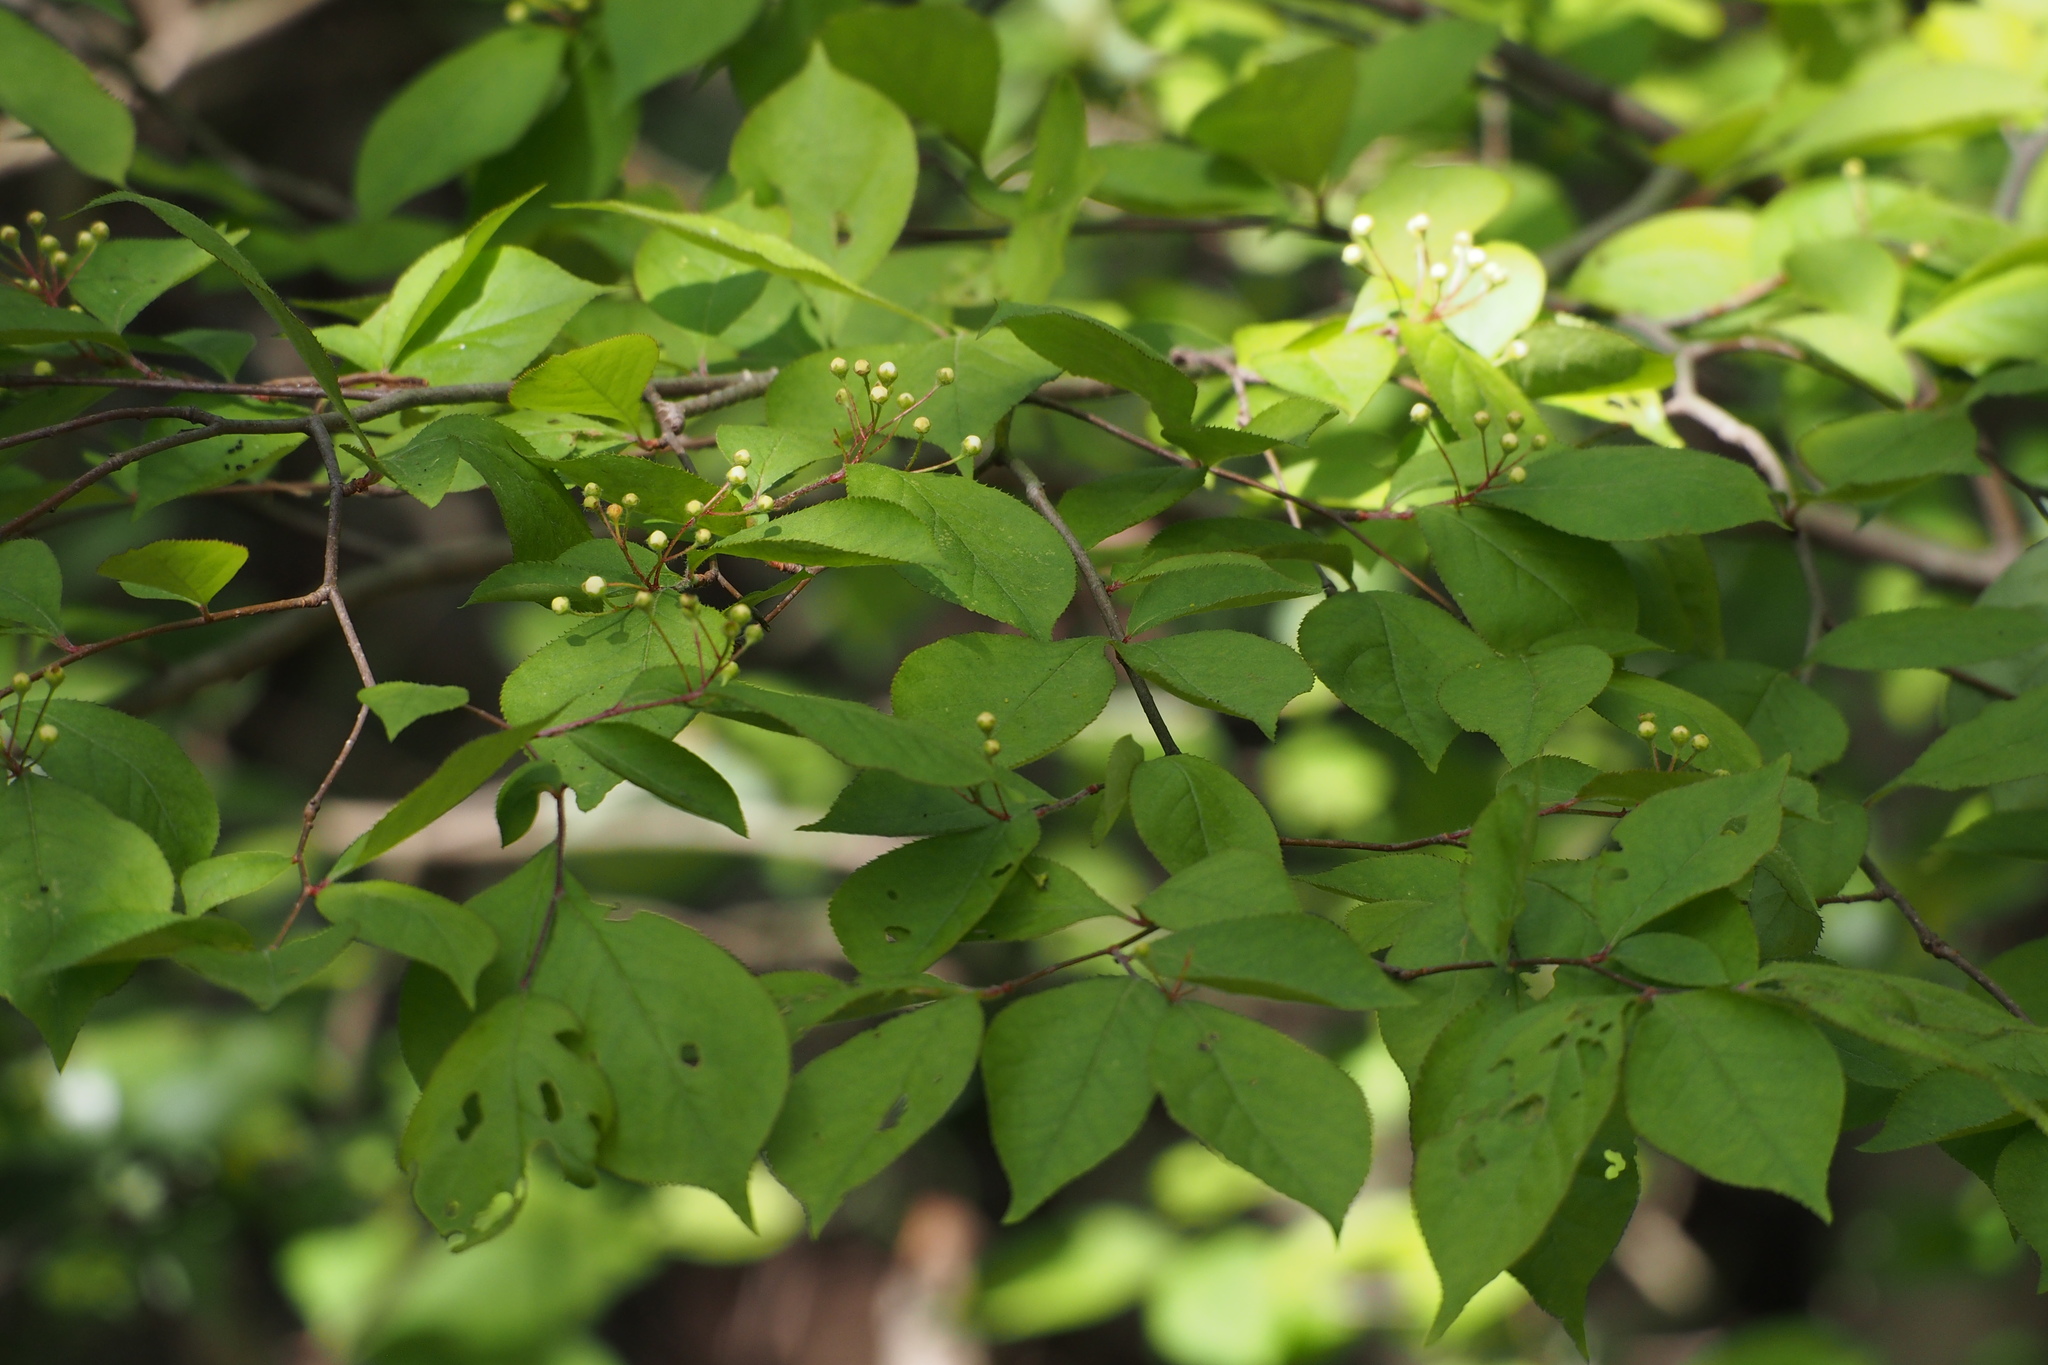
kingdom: Plantae
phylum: Tracheophyta
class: Magnoliopsida
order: Rosales
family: Rosaceae
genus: Pourthiaea
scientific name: Pourthiaea villosa
